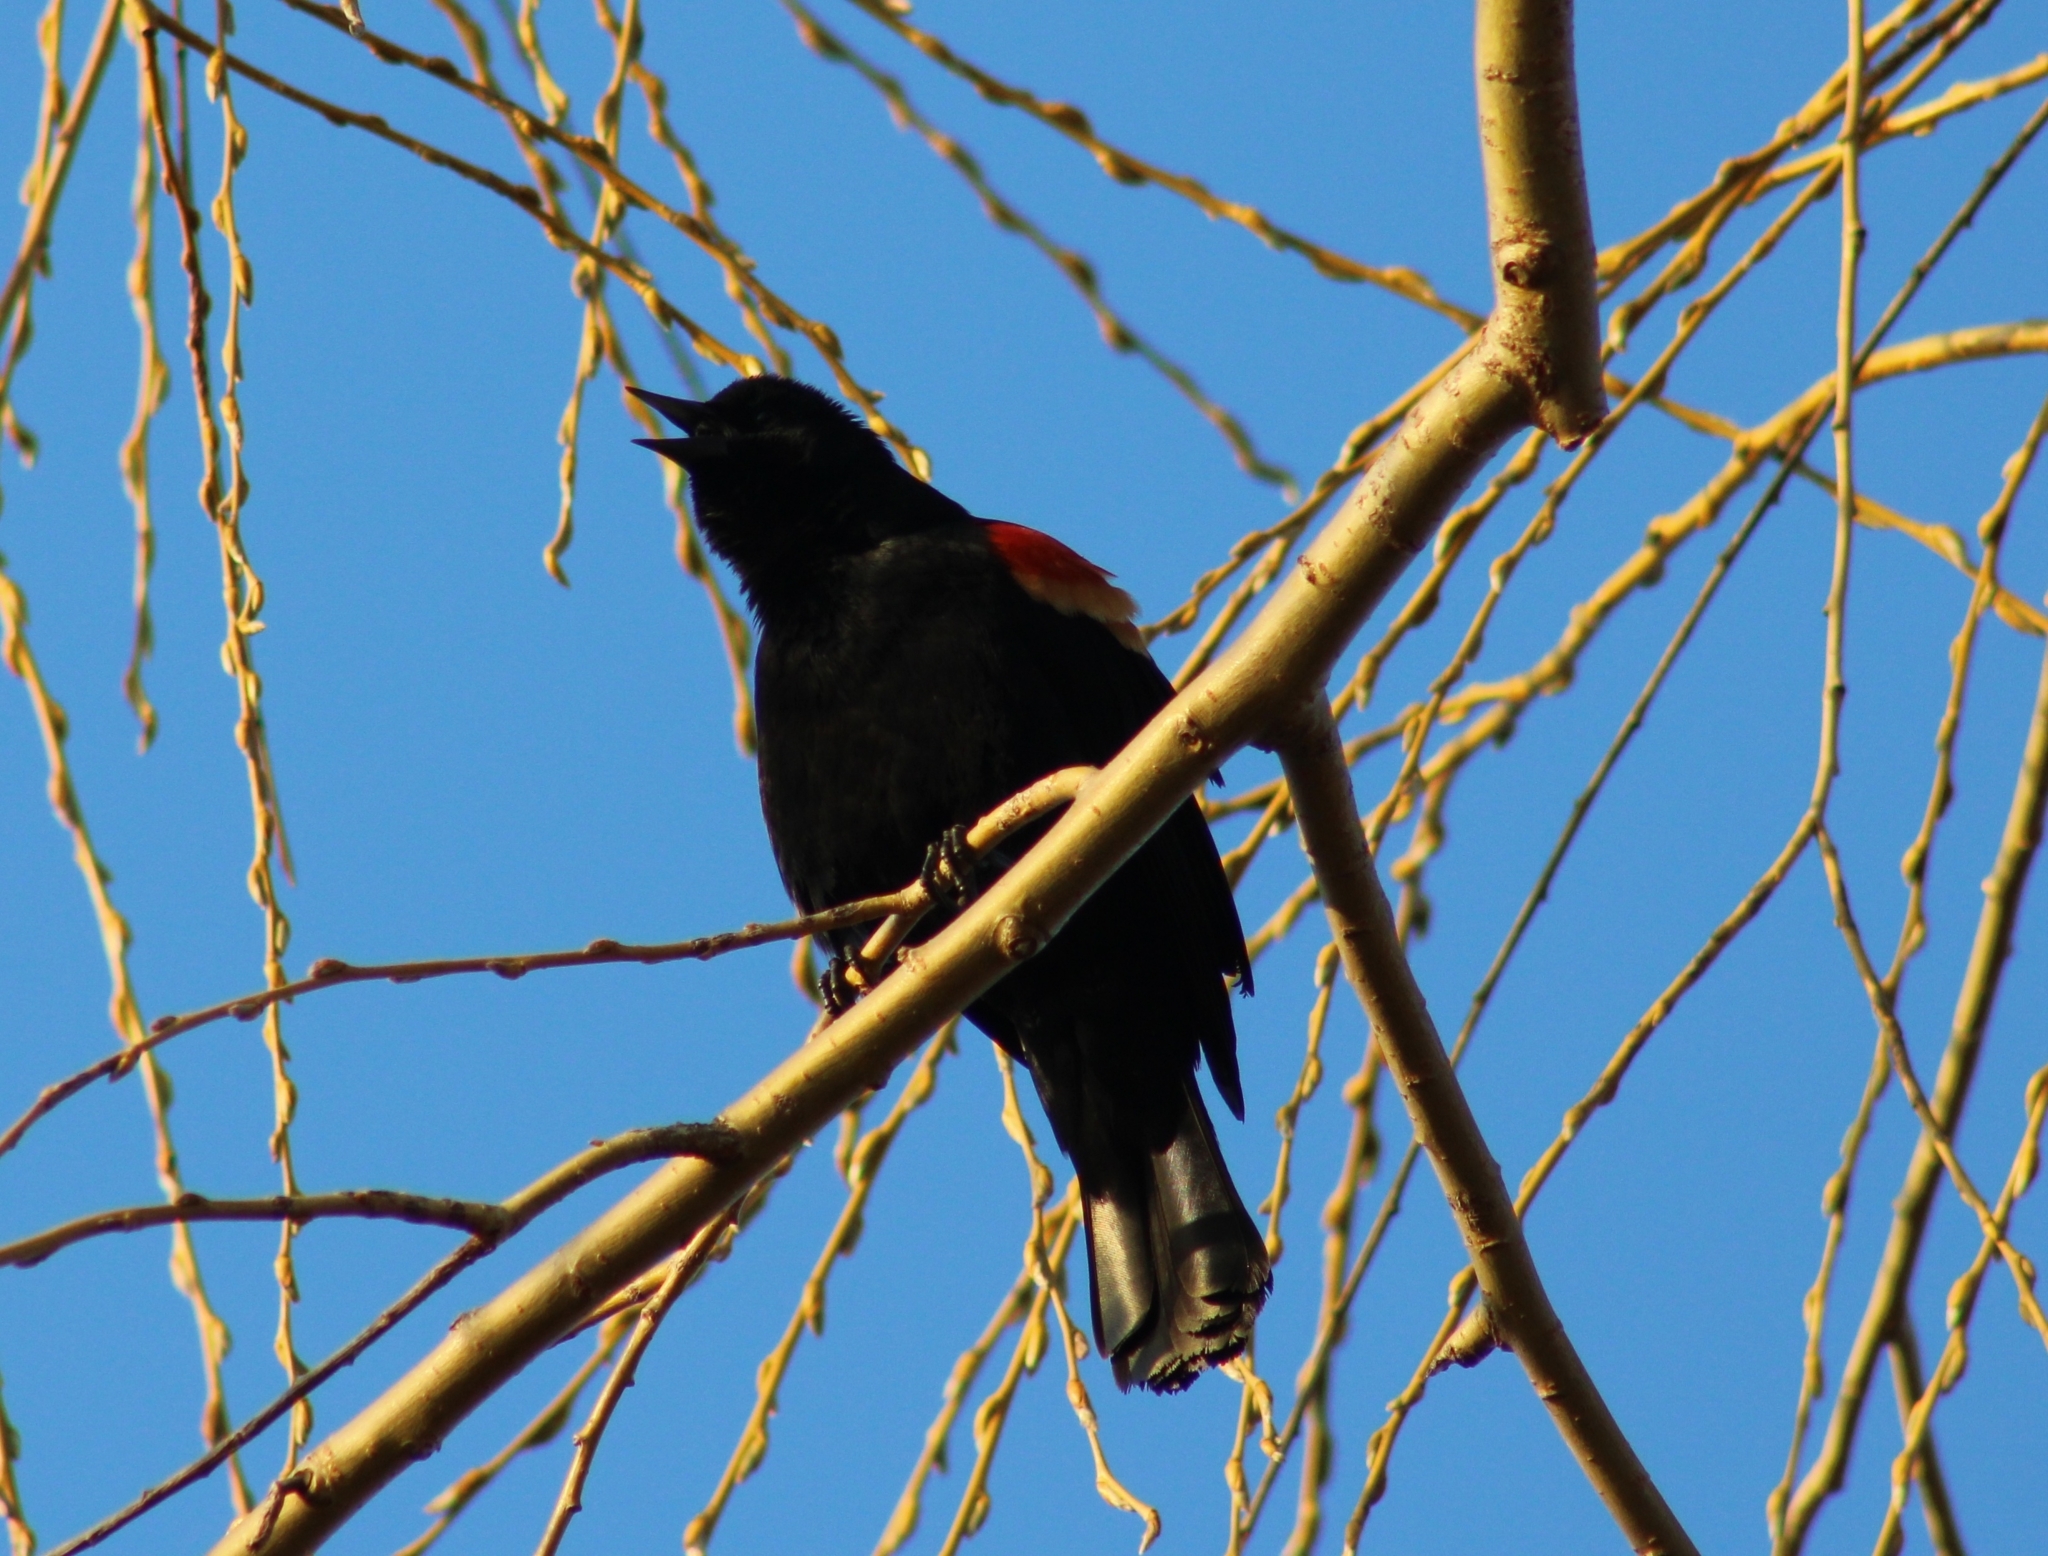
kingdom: Animalia
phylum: Chordata
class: Aves
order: Passeriformes
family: Icteridae
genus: Agelaius
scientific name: Agelaius phoeniceus
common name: Red-winged blackbird
